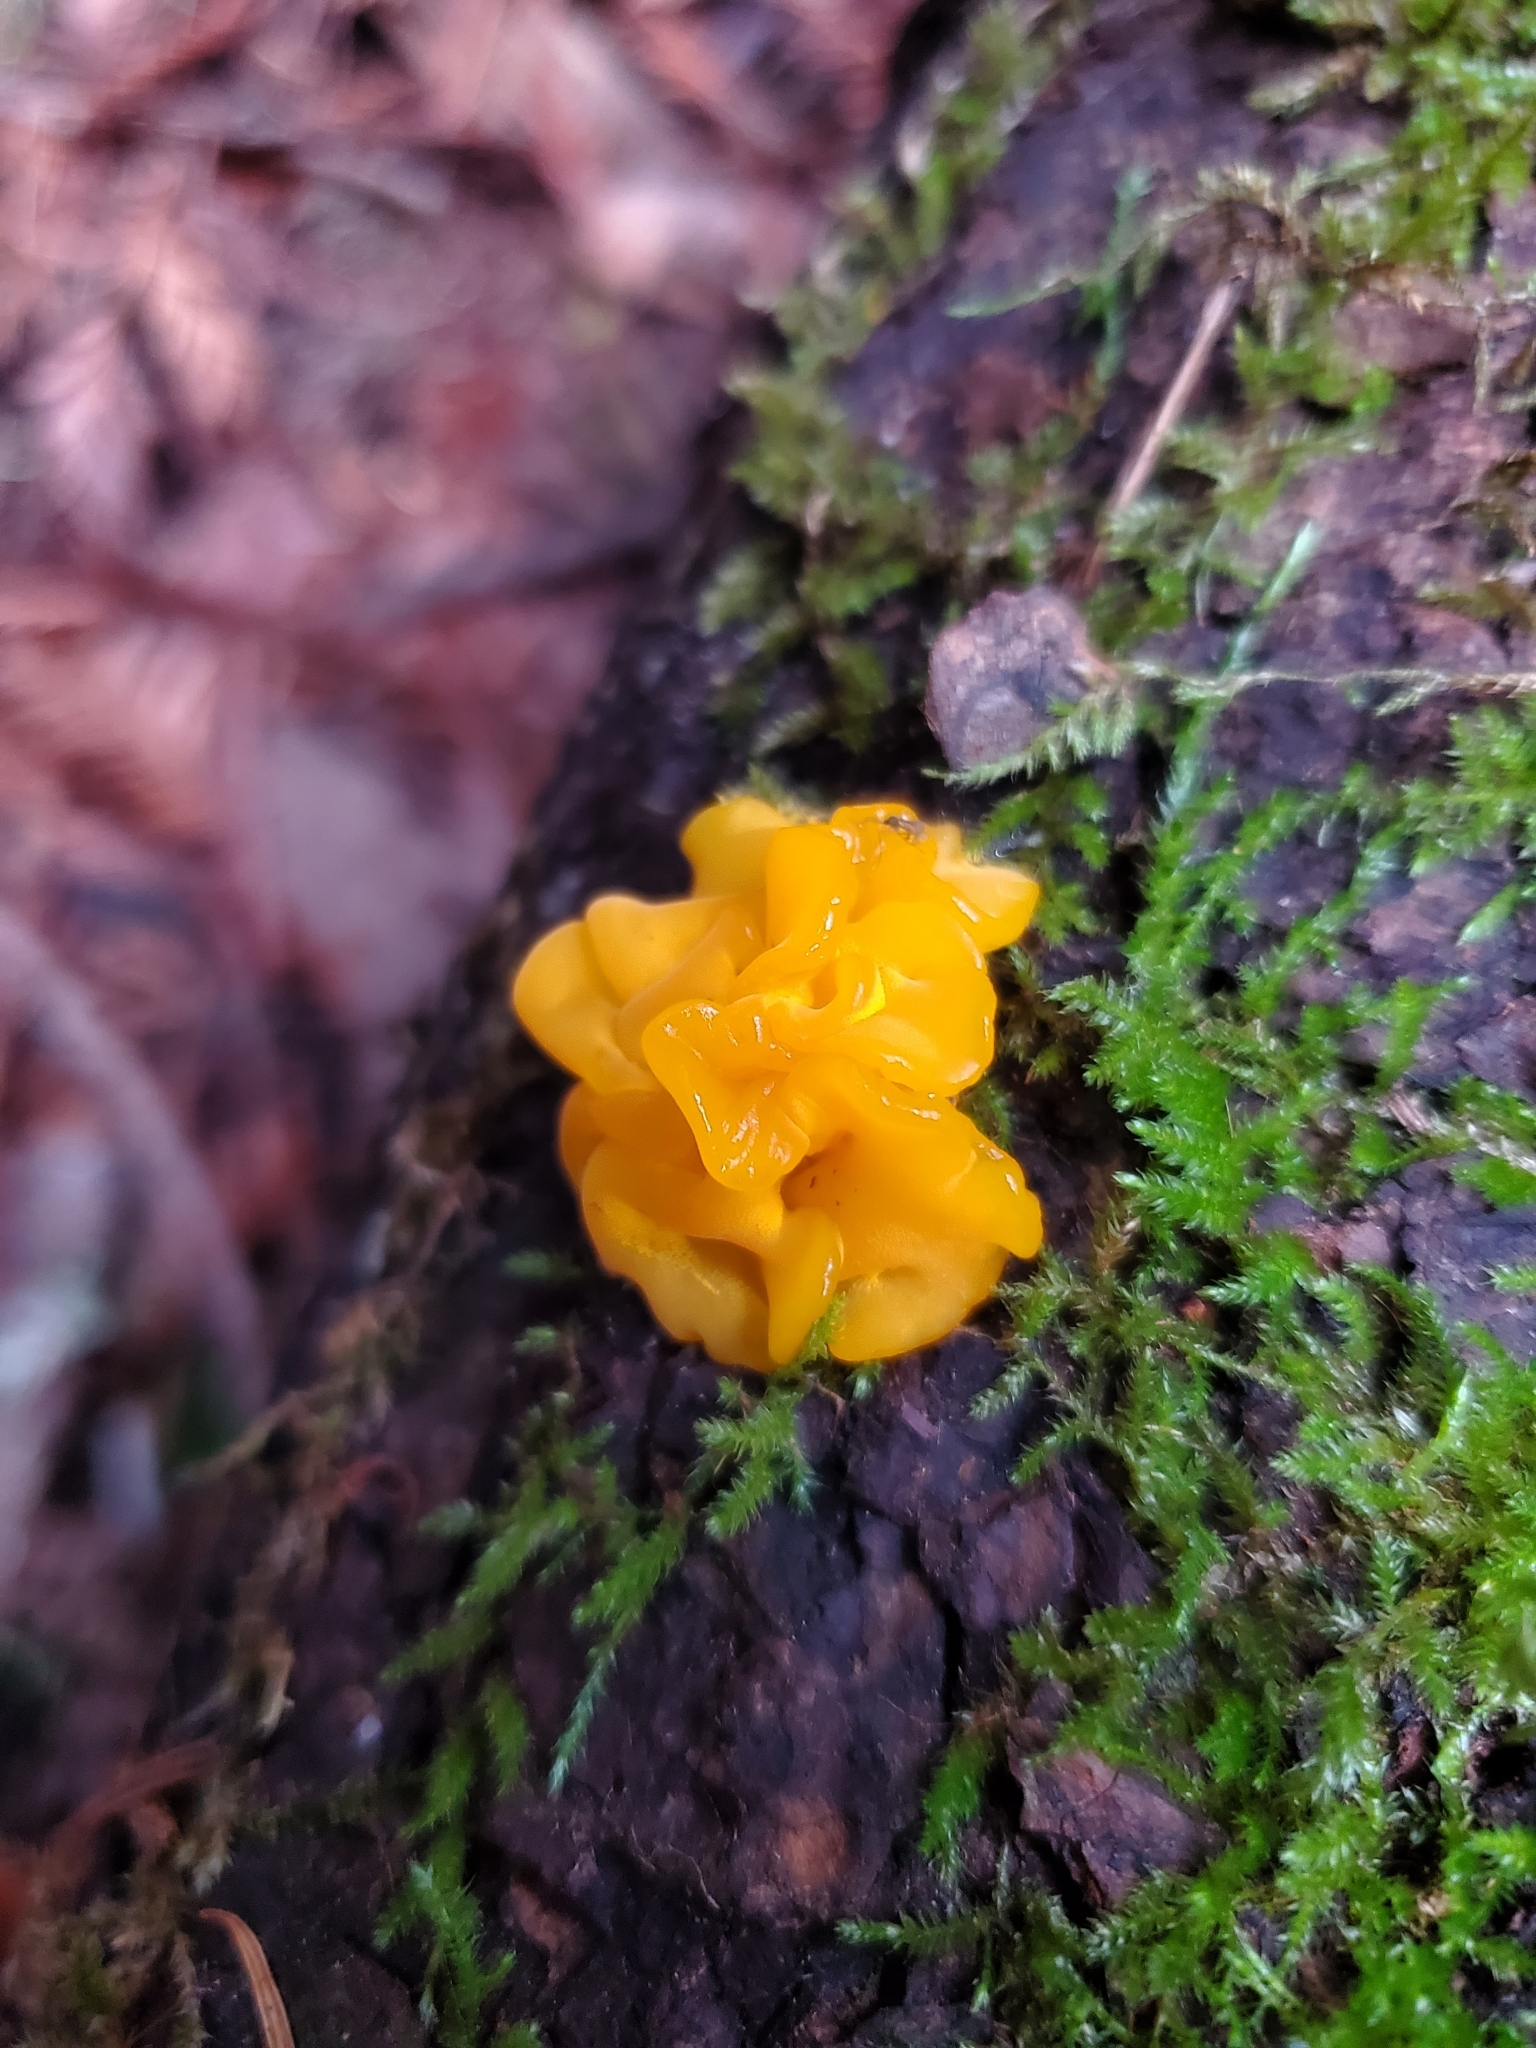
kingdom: Fungi
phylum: Basidiomycota
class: Dacrymycetes
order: Dacrymycetales
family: Dacrymycetaceae
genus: Dacrymyces
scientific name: Dacrymyces chrysospermus
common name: Orange jelly spot
